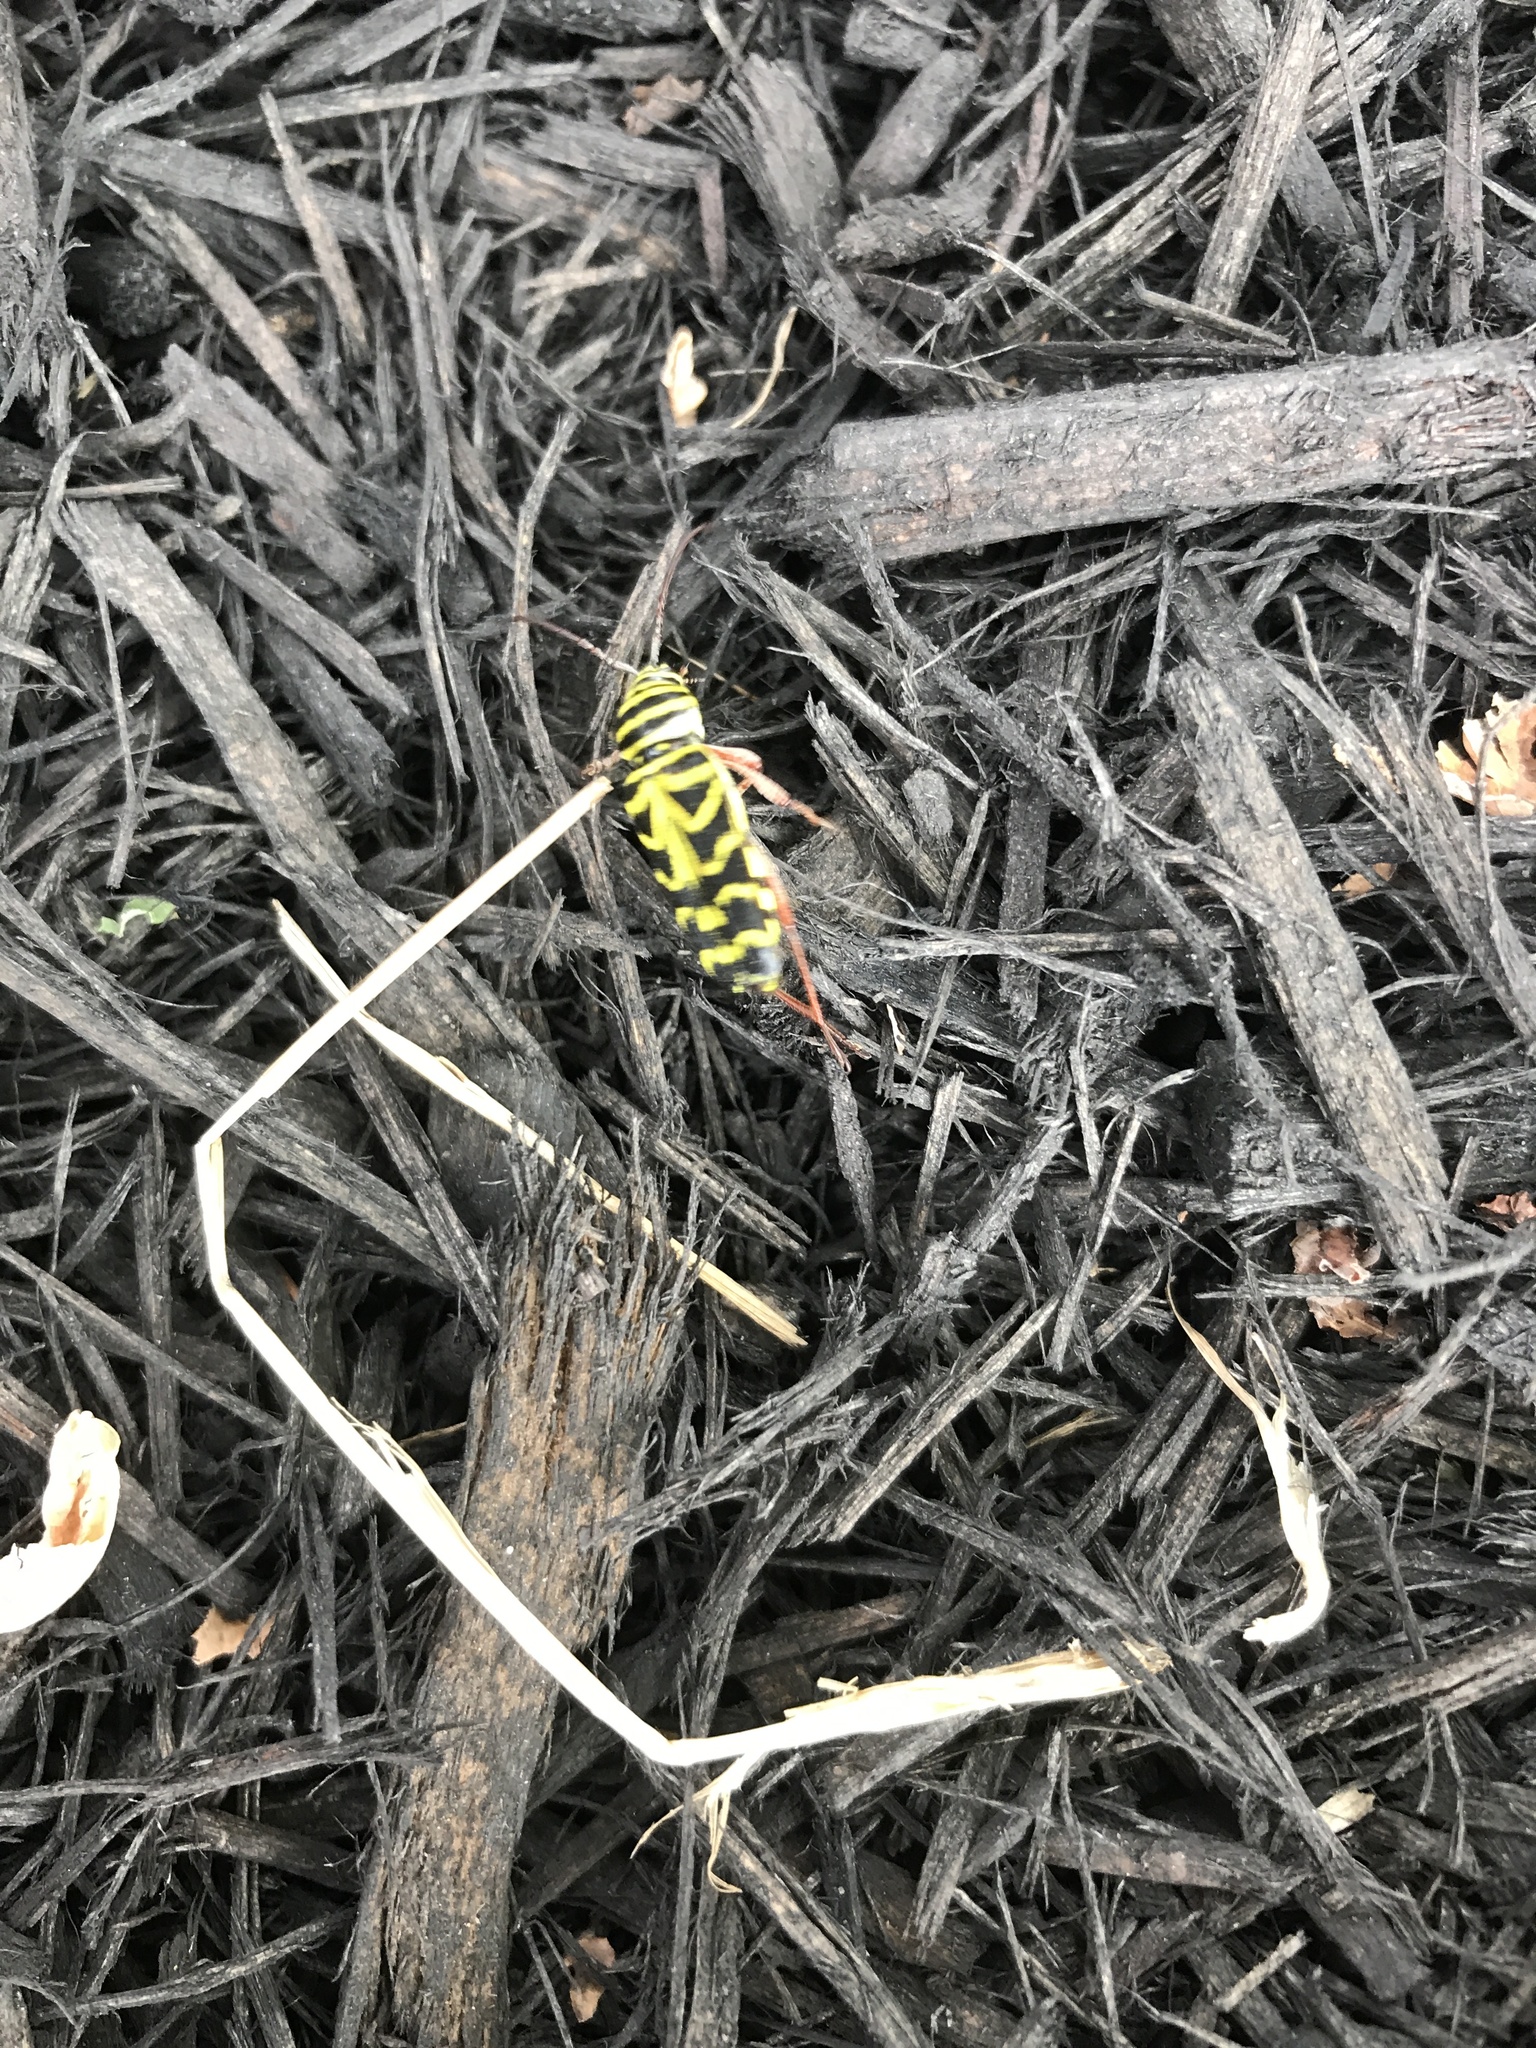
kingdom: Animalia
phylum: Arthropoda
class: Insecta
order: Coleoptera
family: Cerambycidae
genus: Megacyllene
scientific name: Megacyllene robiniae
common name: Locust borer
